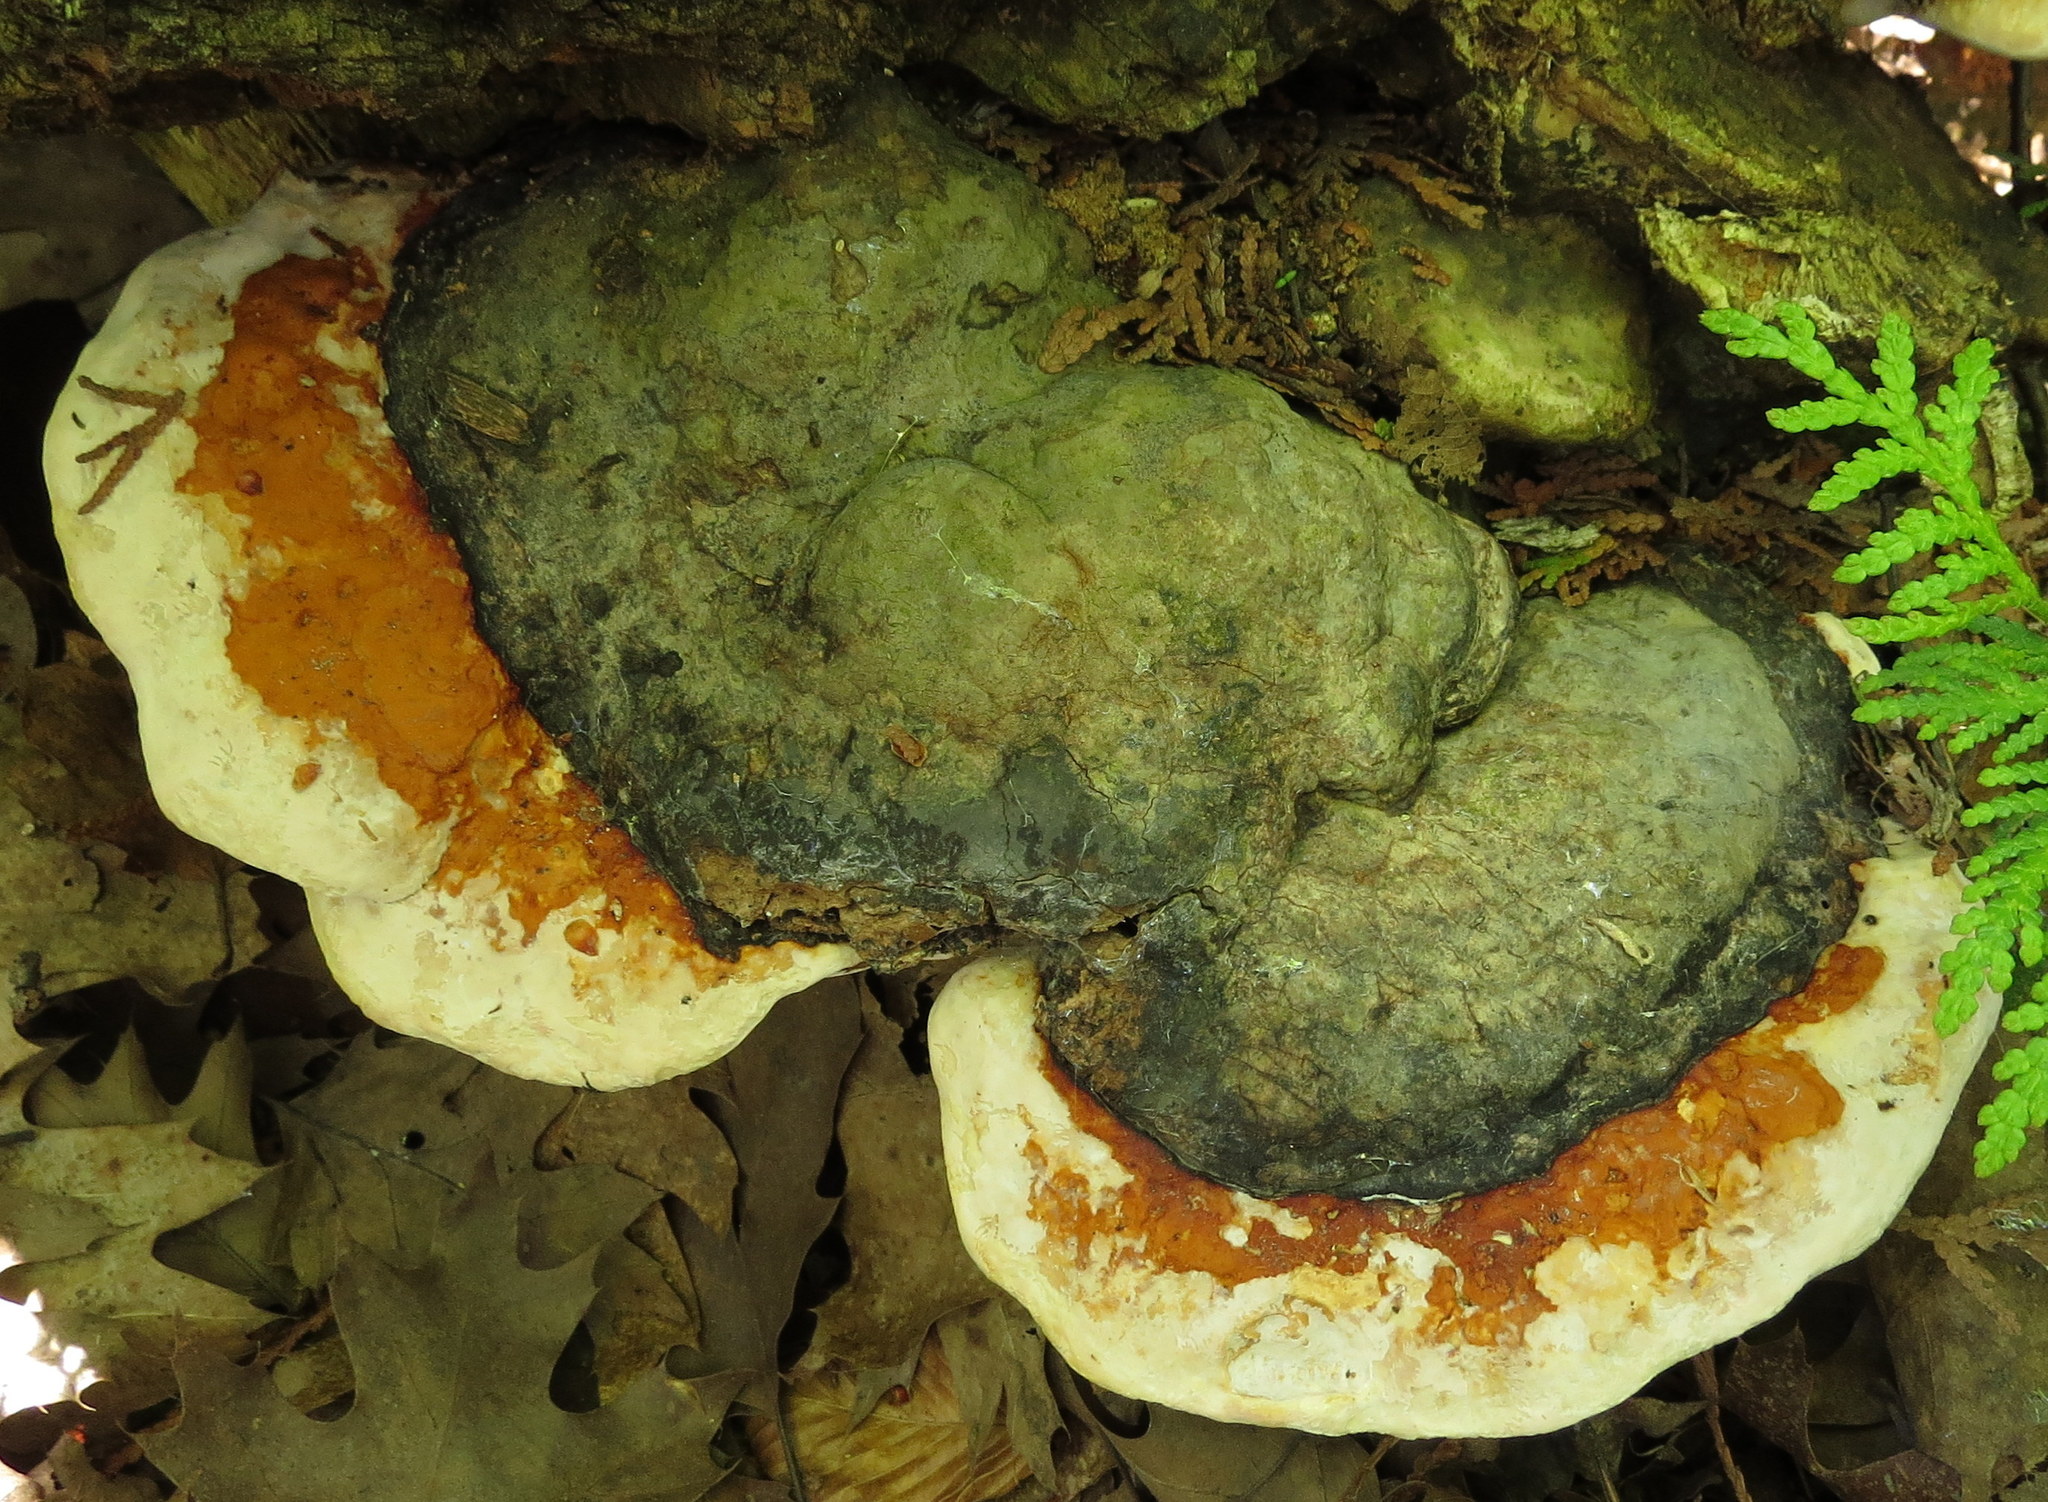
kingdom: Fungi
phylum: Basidiomycota
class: Agaricomycetes
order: Polyporales
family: Fomitopsidaceae
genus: Fomitopsis
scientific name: Fomitopsis mounceae
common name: Northern red belt
